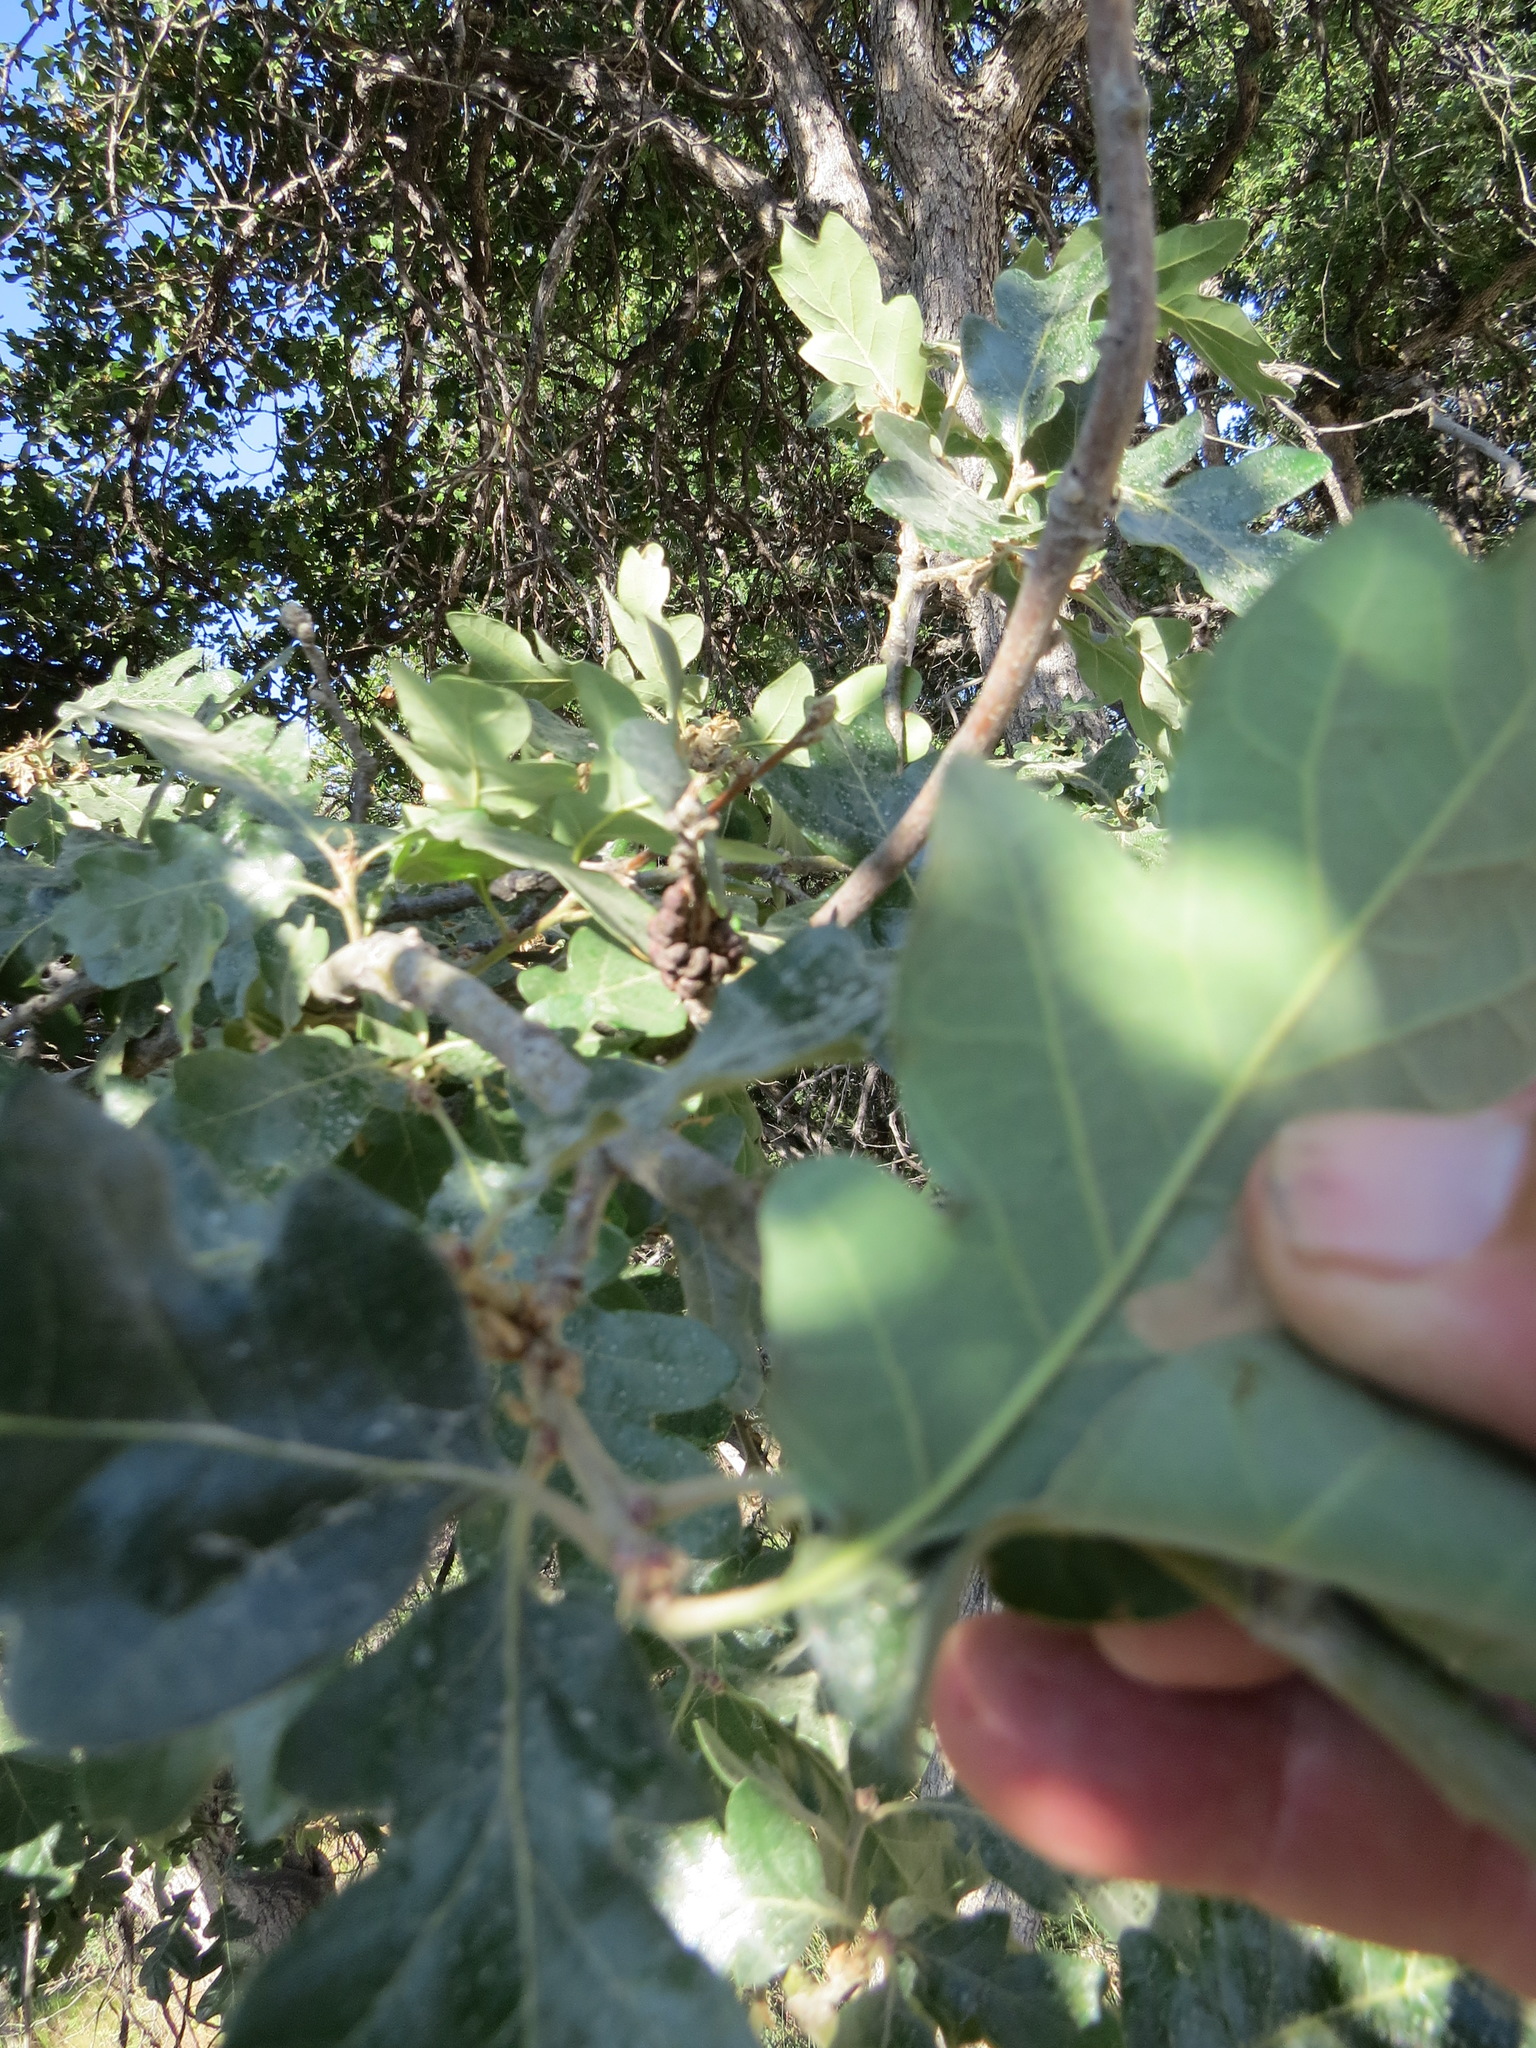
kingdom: Plantae
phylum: Tracheophyta
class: Magnoliopsida
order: Fagales
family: Fagaceae
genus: Quercus
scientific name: Quercus garryana
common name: Garry oak
